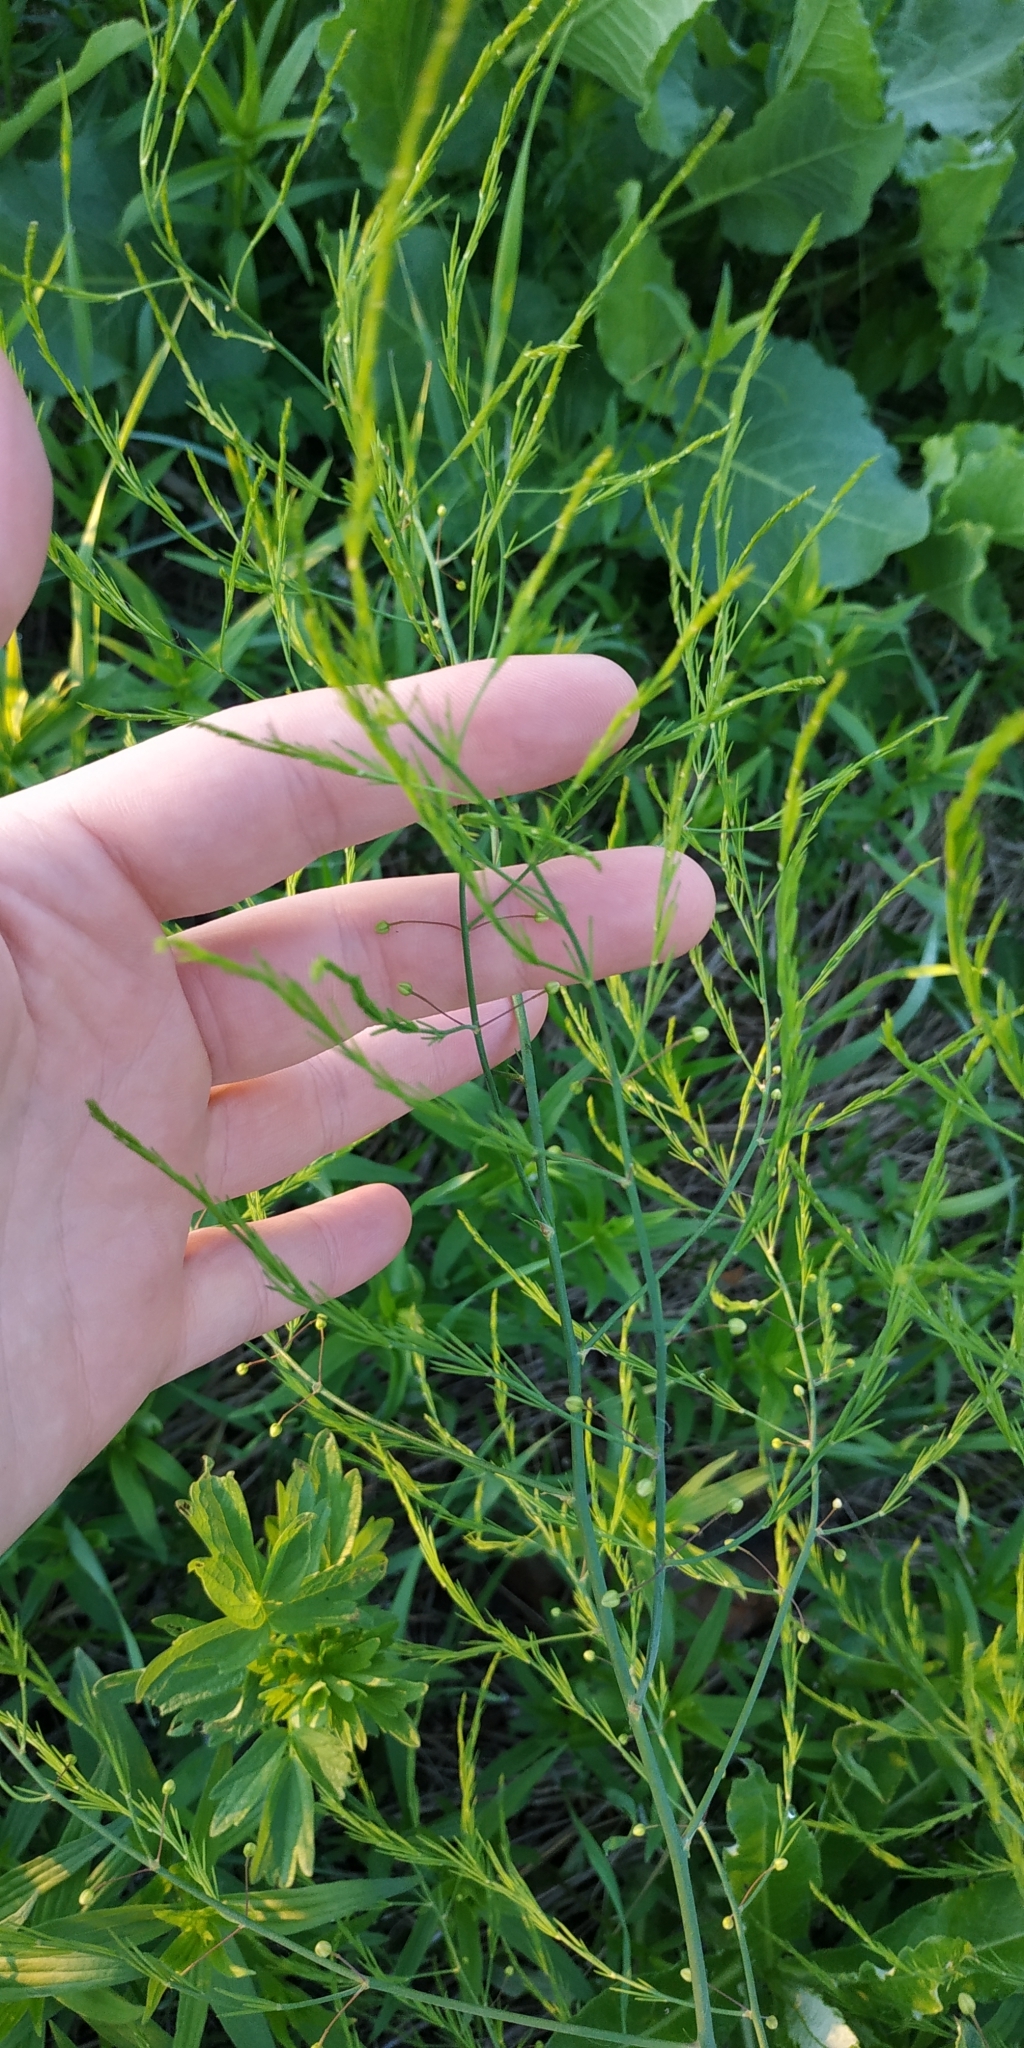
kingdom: Plantae
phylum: Tracheophyta
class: Liliopsida
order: Asparagales
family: Asparagaceae
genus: Asparagus
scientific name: Asparagus officinalis
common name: Garden asparagus
